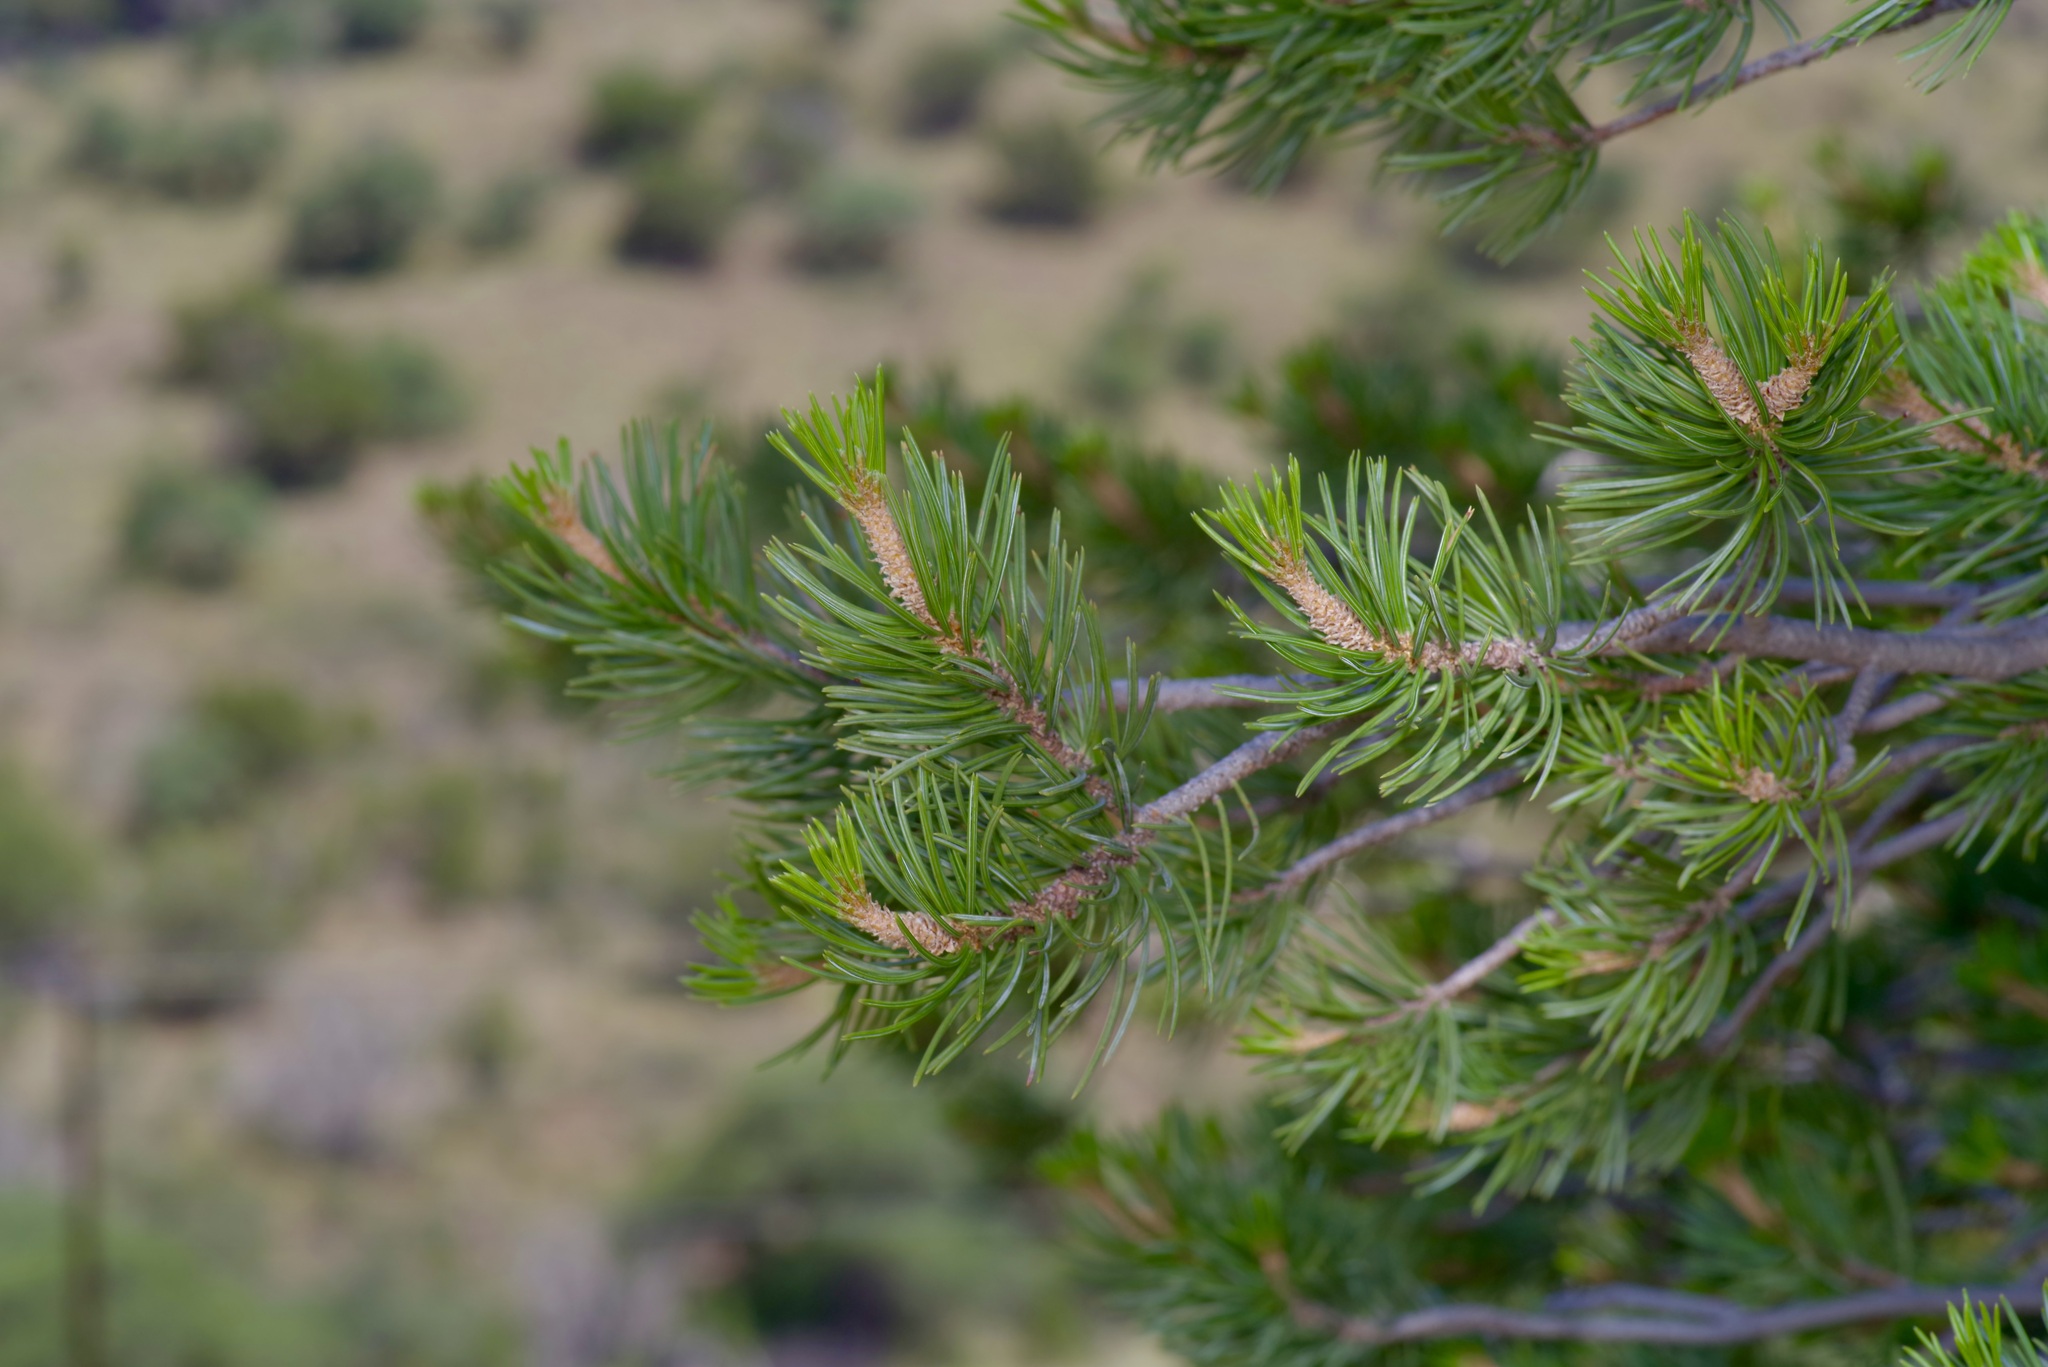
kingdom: Plantae
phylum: Tracheophyta
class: Pinopsida
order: Pinales
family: Pinaceae
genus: Pinus
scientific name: Pinus remota
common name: Nut pine
